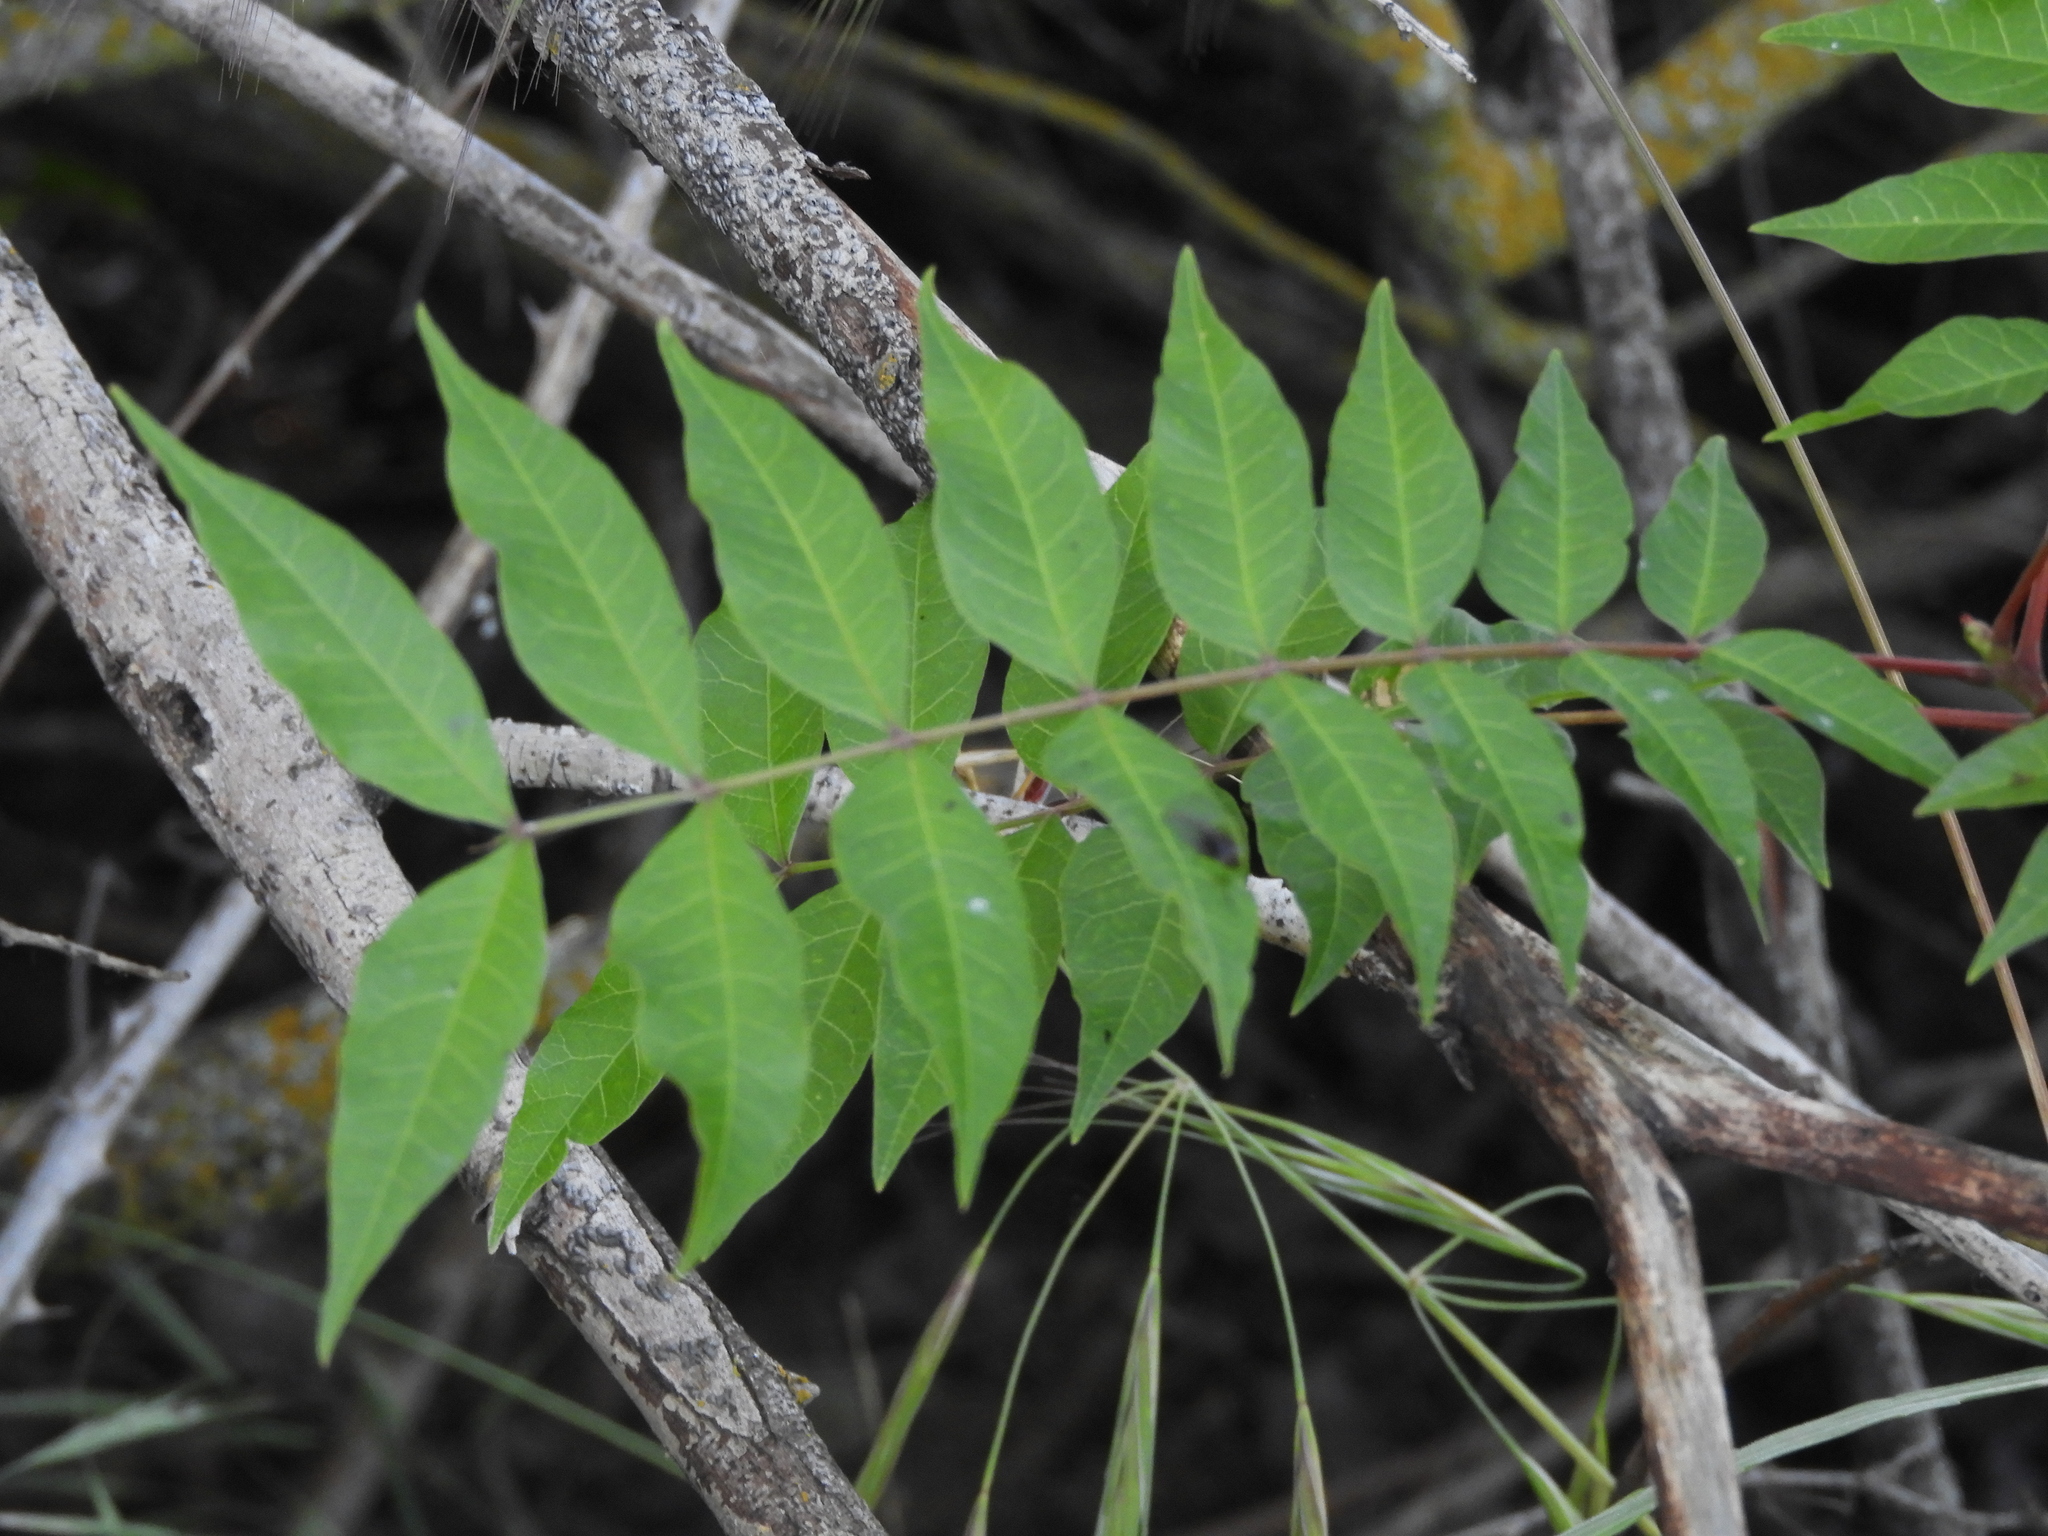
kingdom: Plantae
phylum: Tracheophyta
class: Magnoliopsida
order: Sapindales
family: Simaroubaceae
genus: Ailanthus
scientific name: Ailanthus altissima
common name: Tree-of-heaven
